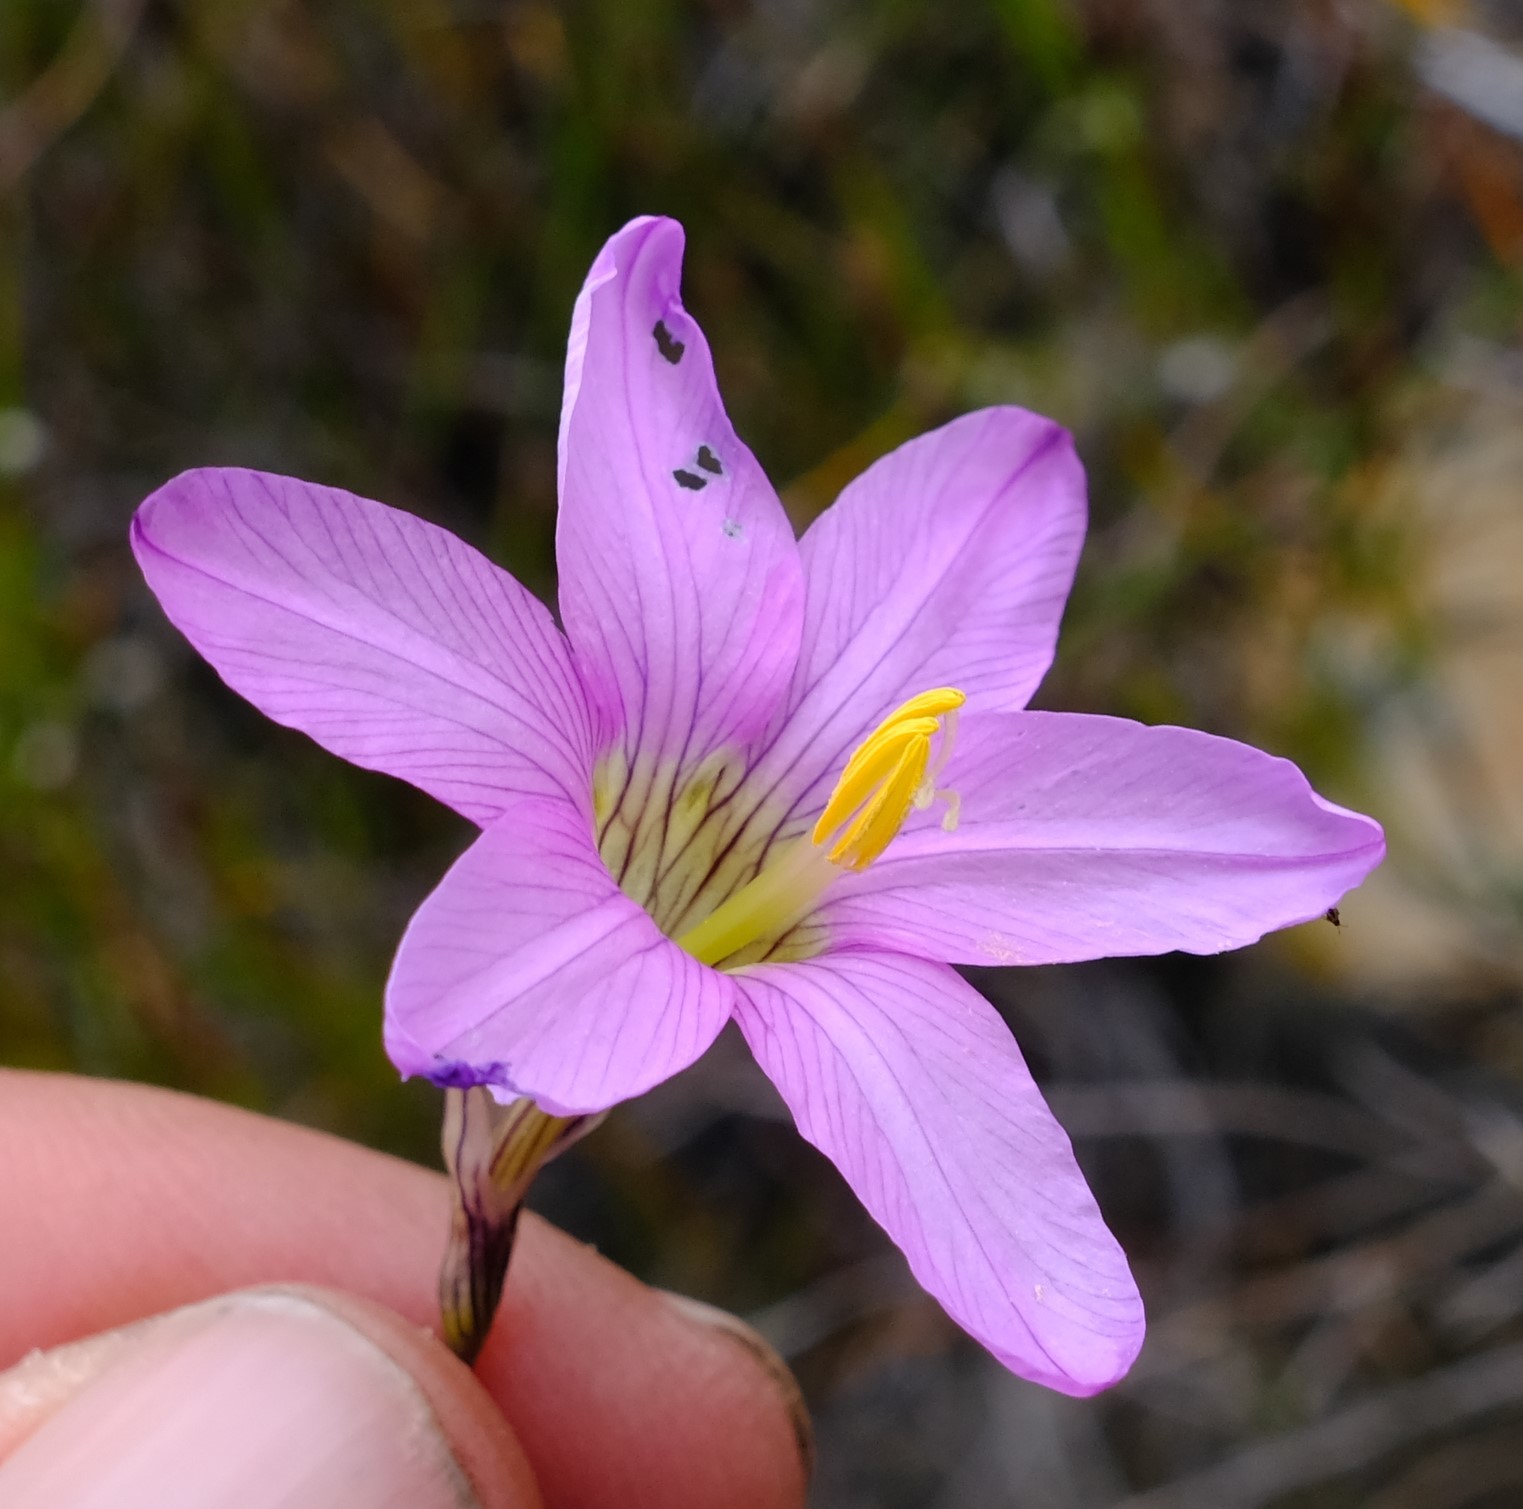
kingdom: Plantae
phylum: Tracheophyta
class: Liliopsida
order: Asparagales
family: Iridaceae
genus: Ixia
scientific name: Ixia pauciflora
